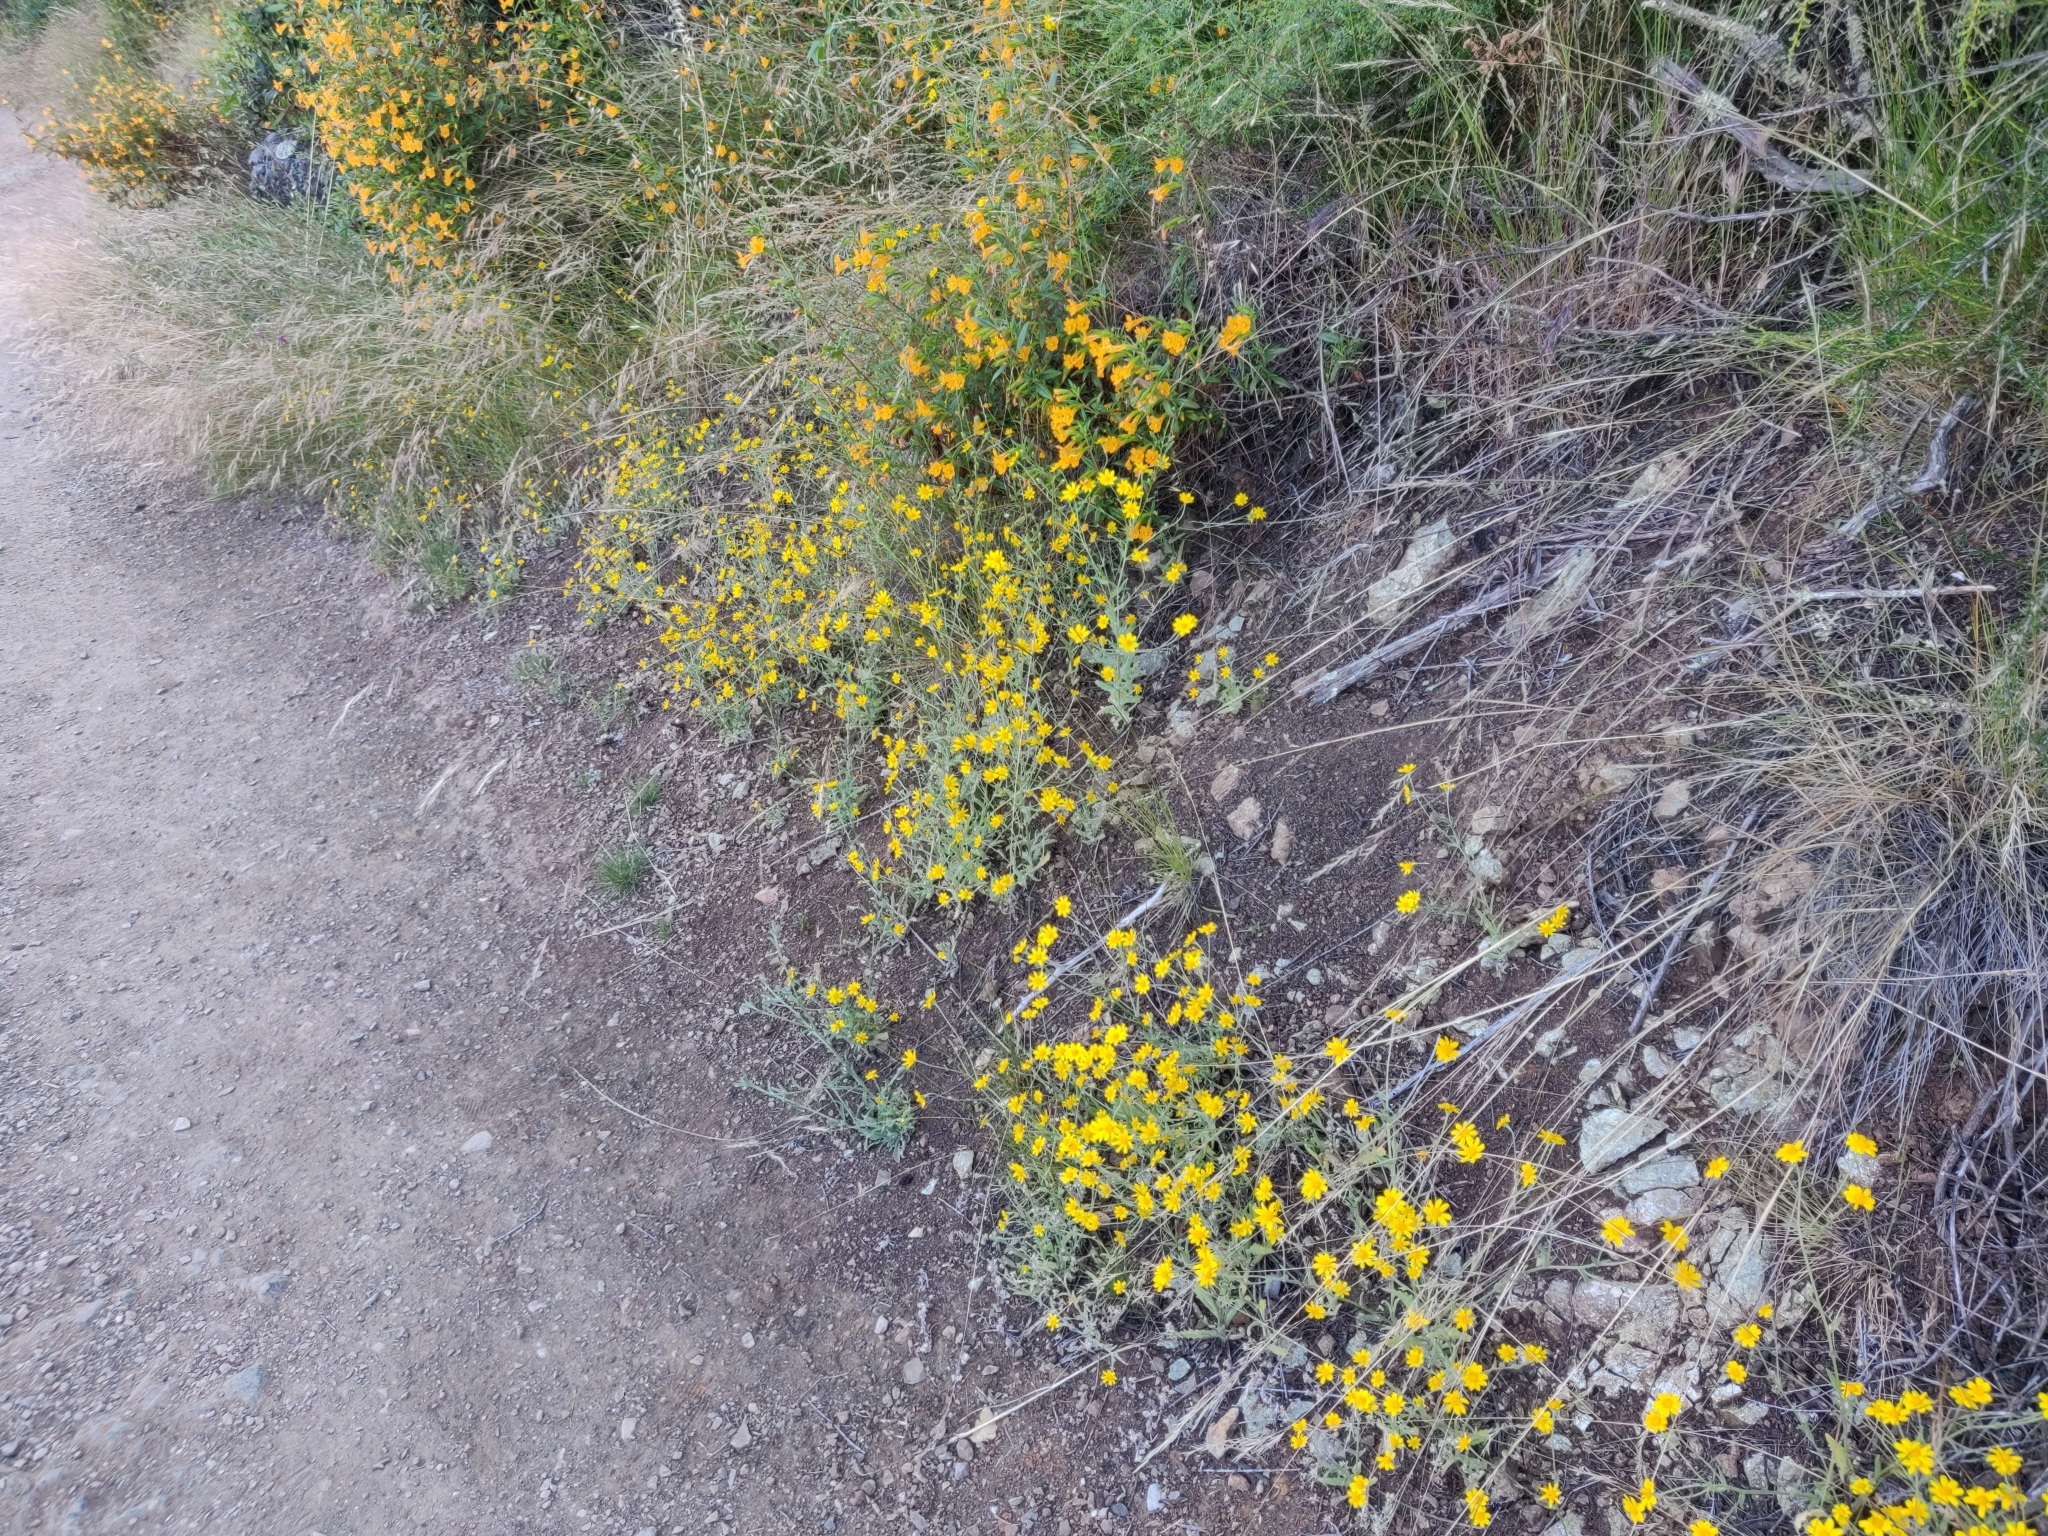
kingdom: Plantae
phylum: Tracheophyta
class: Magnoliopsida
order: Asterales
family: Asteraceae
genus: Monolopia
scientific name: Monolopia gracilens
